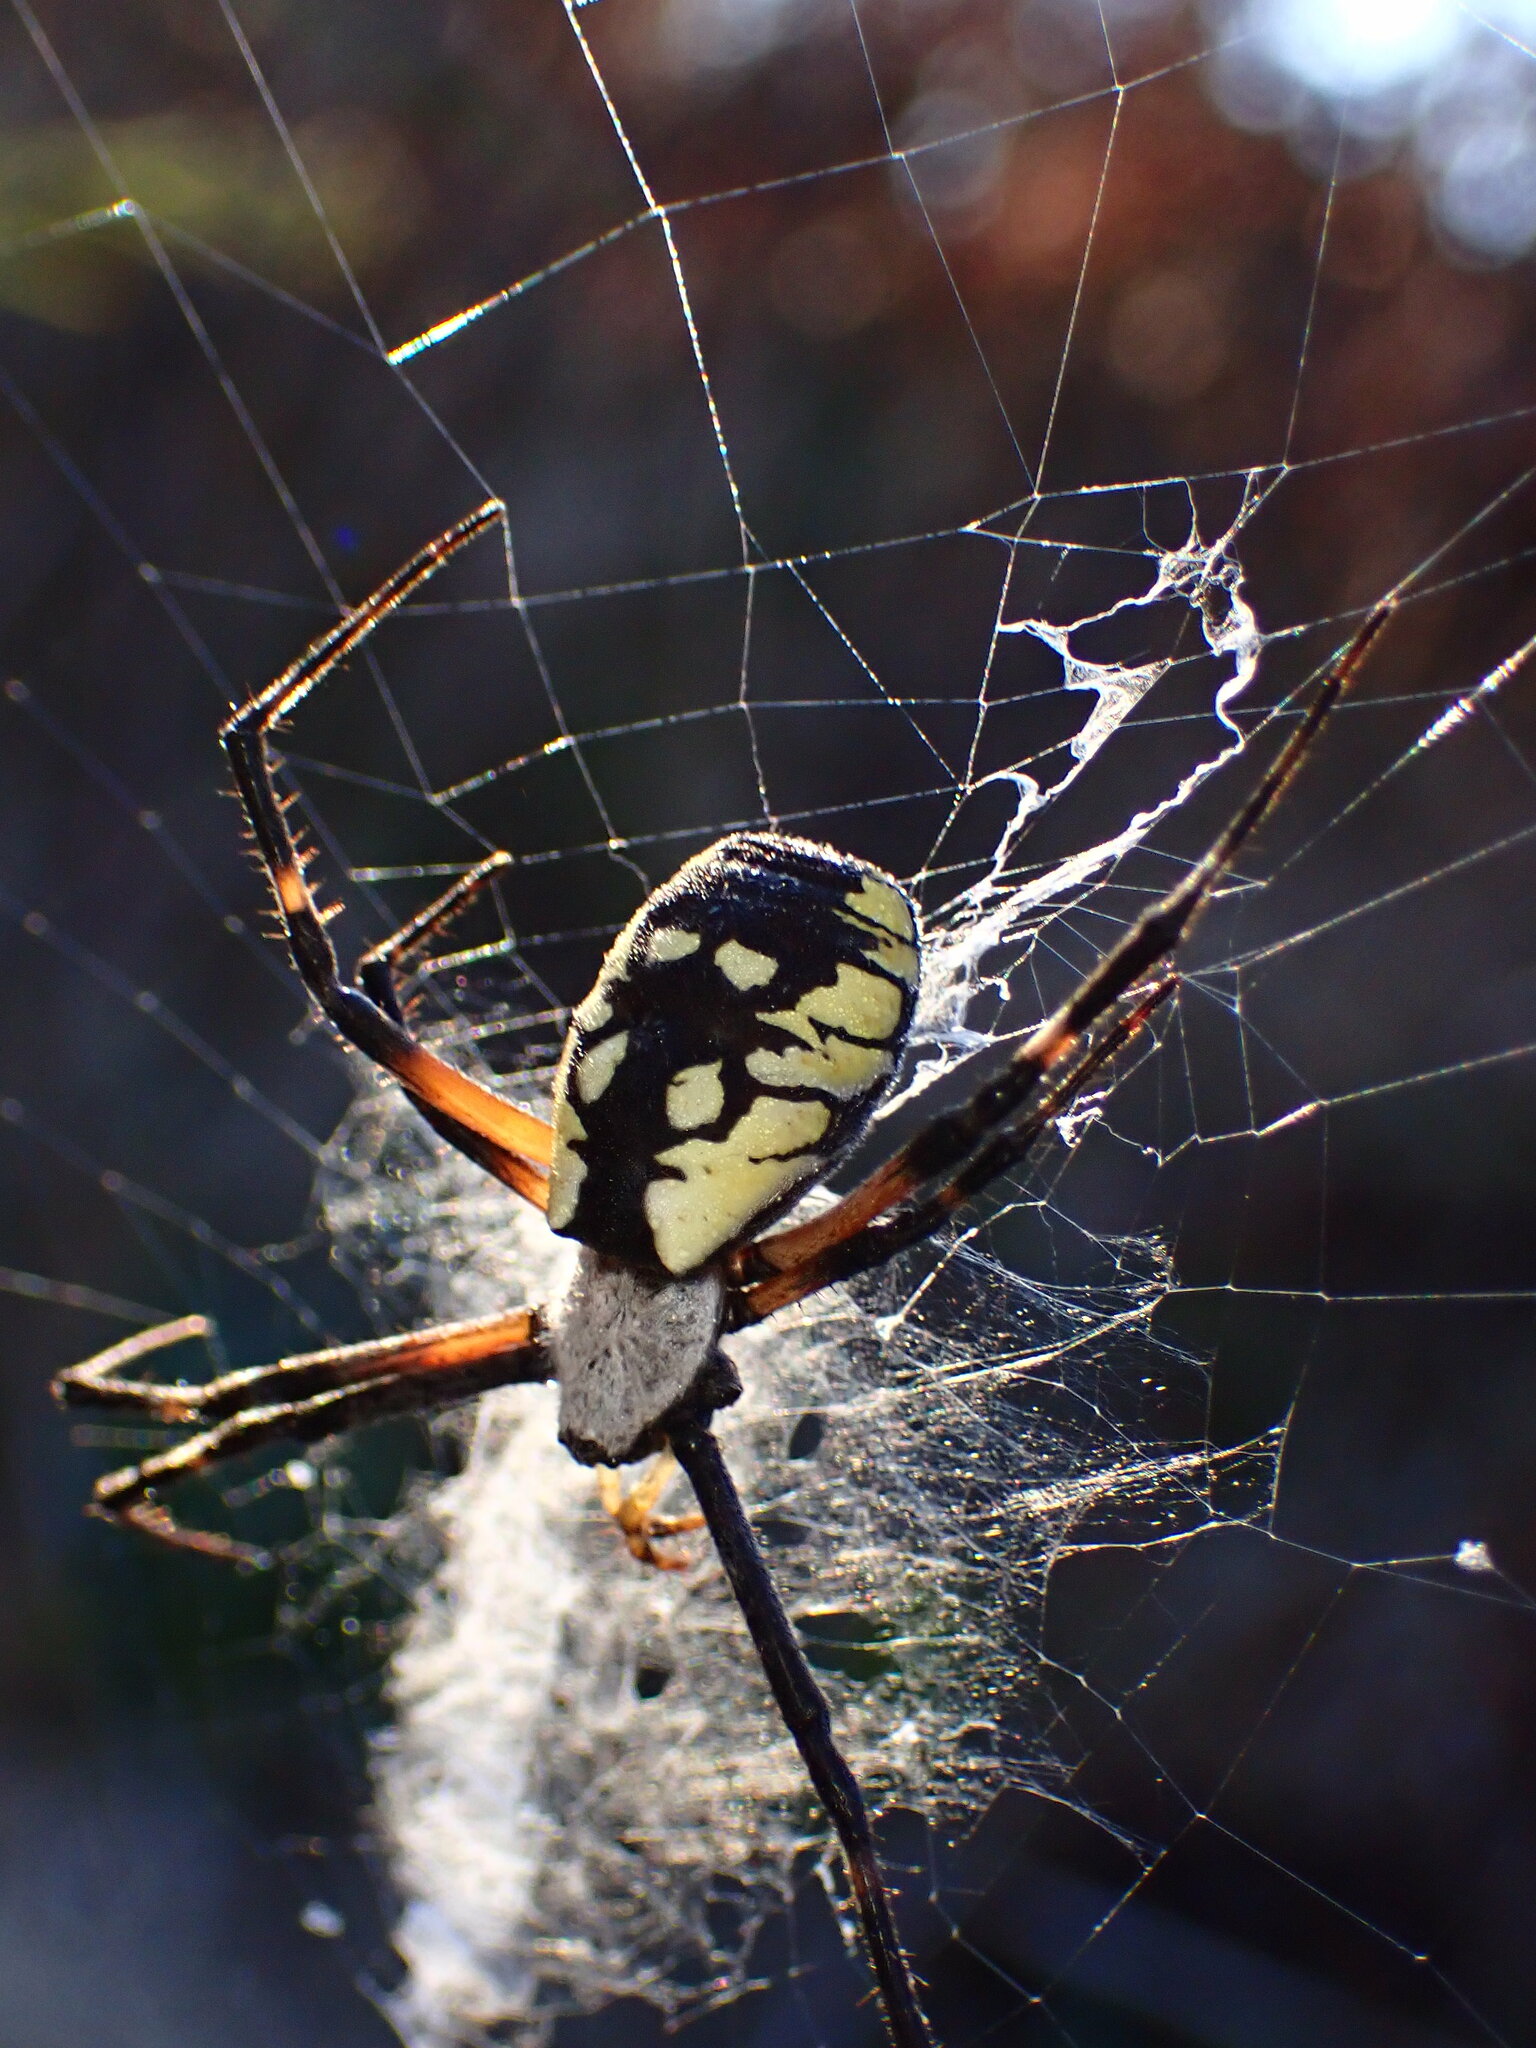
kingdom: Animalia
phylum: Arthropoda
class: Arachnida
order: Araneae
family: Araneidae
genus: Argiope
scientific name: Argiope aurantia
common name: Orb weavers
